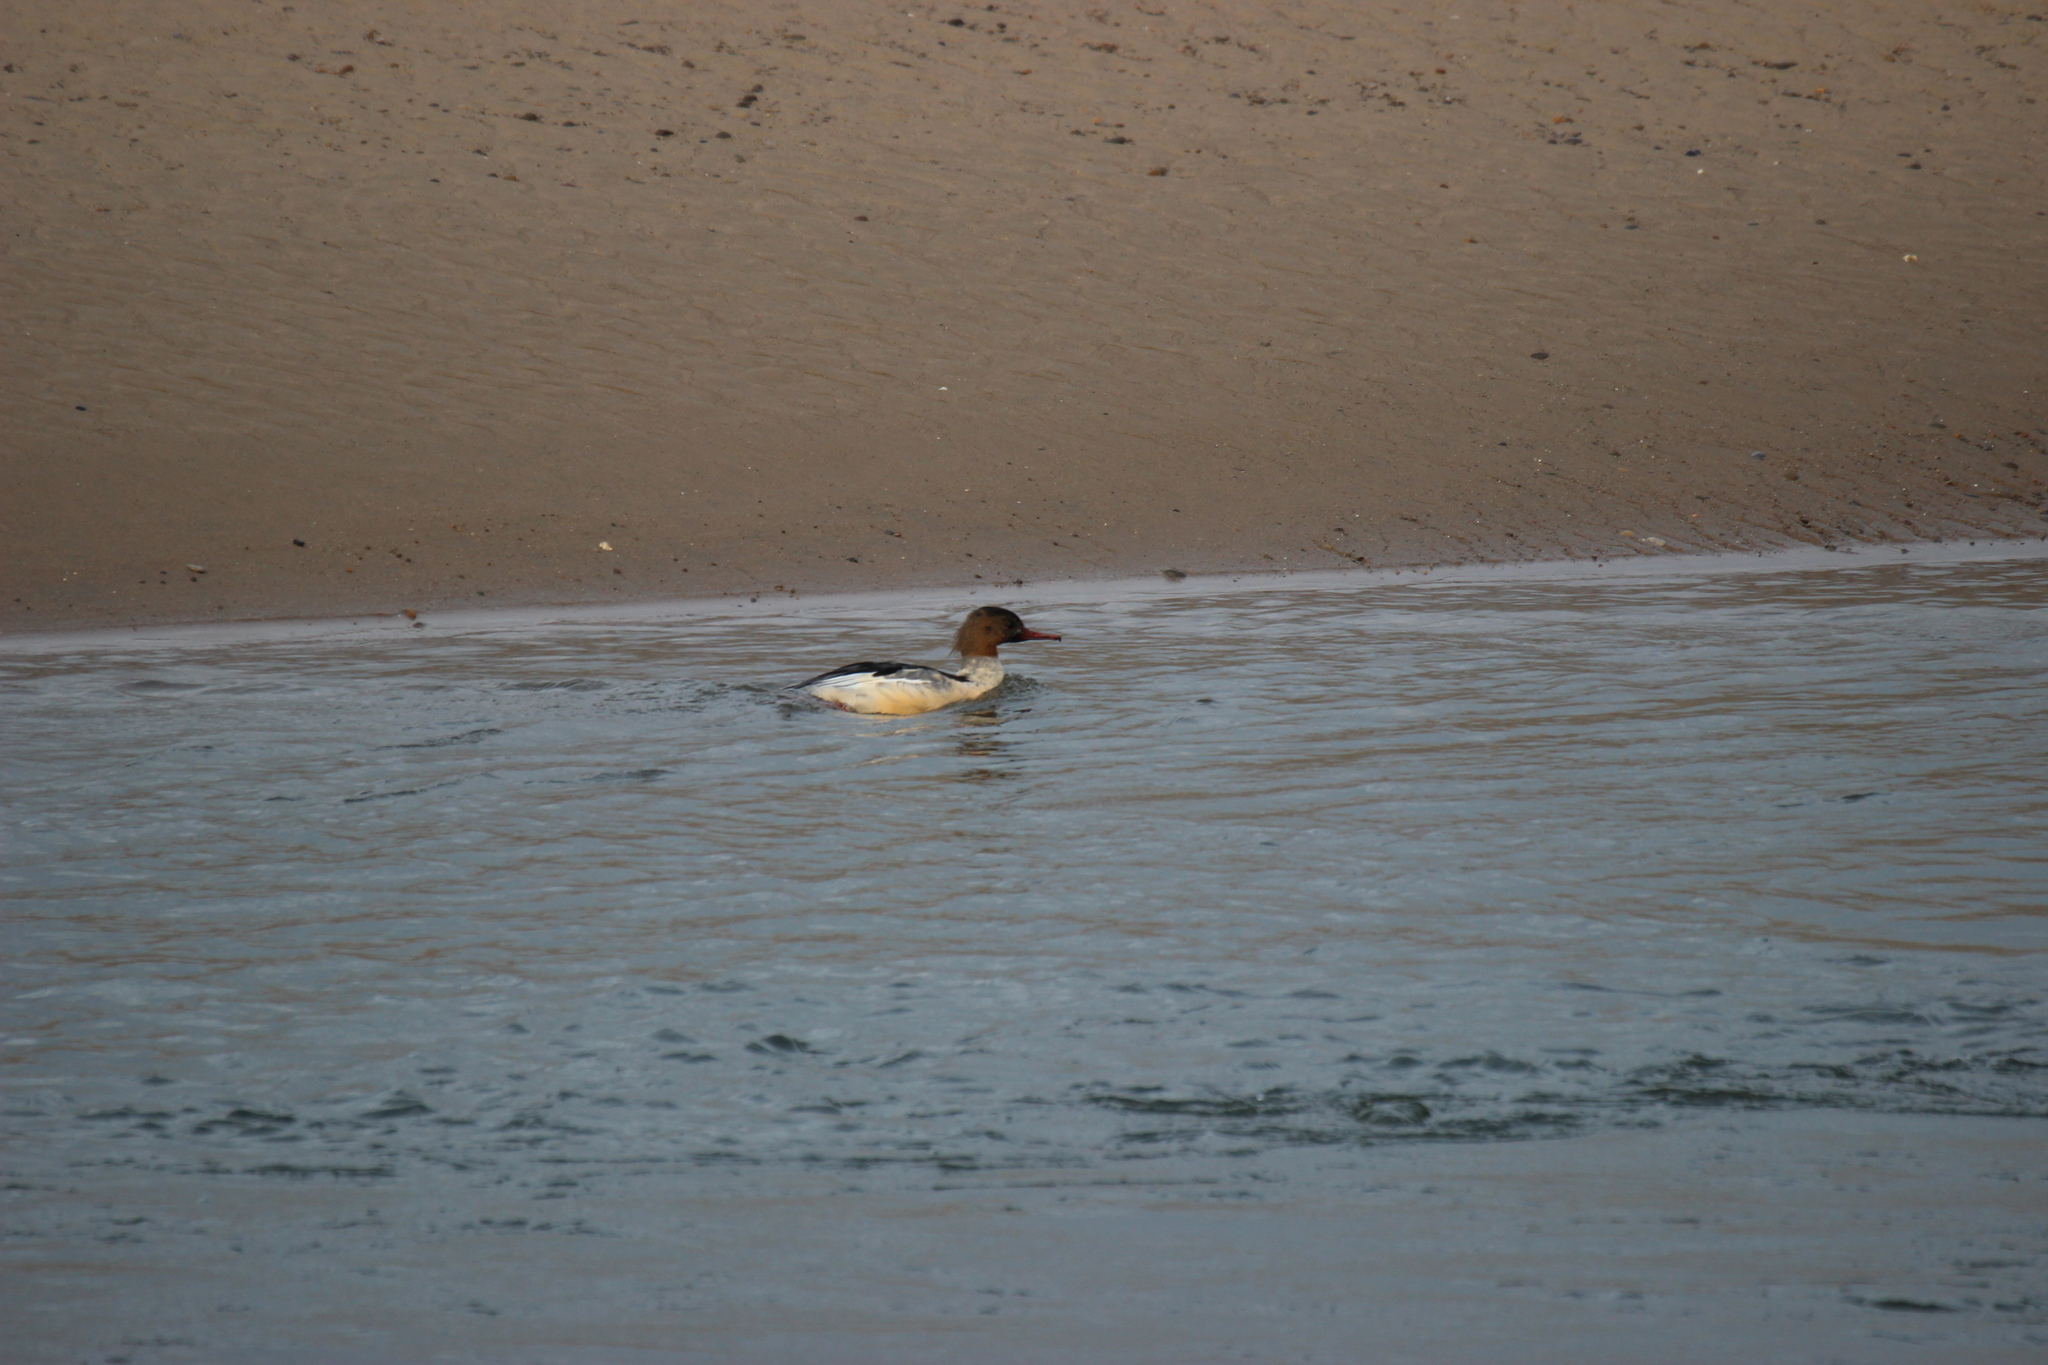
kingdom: Animalia
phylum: Chordata
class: Aves
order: Anseriformes
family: Anatidae
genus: Mergus
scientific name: Mergus merganser
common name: Common merganser
